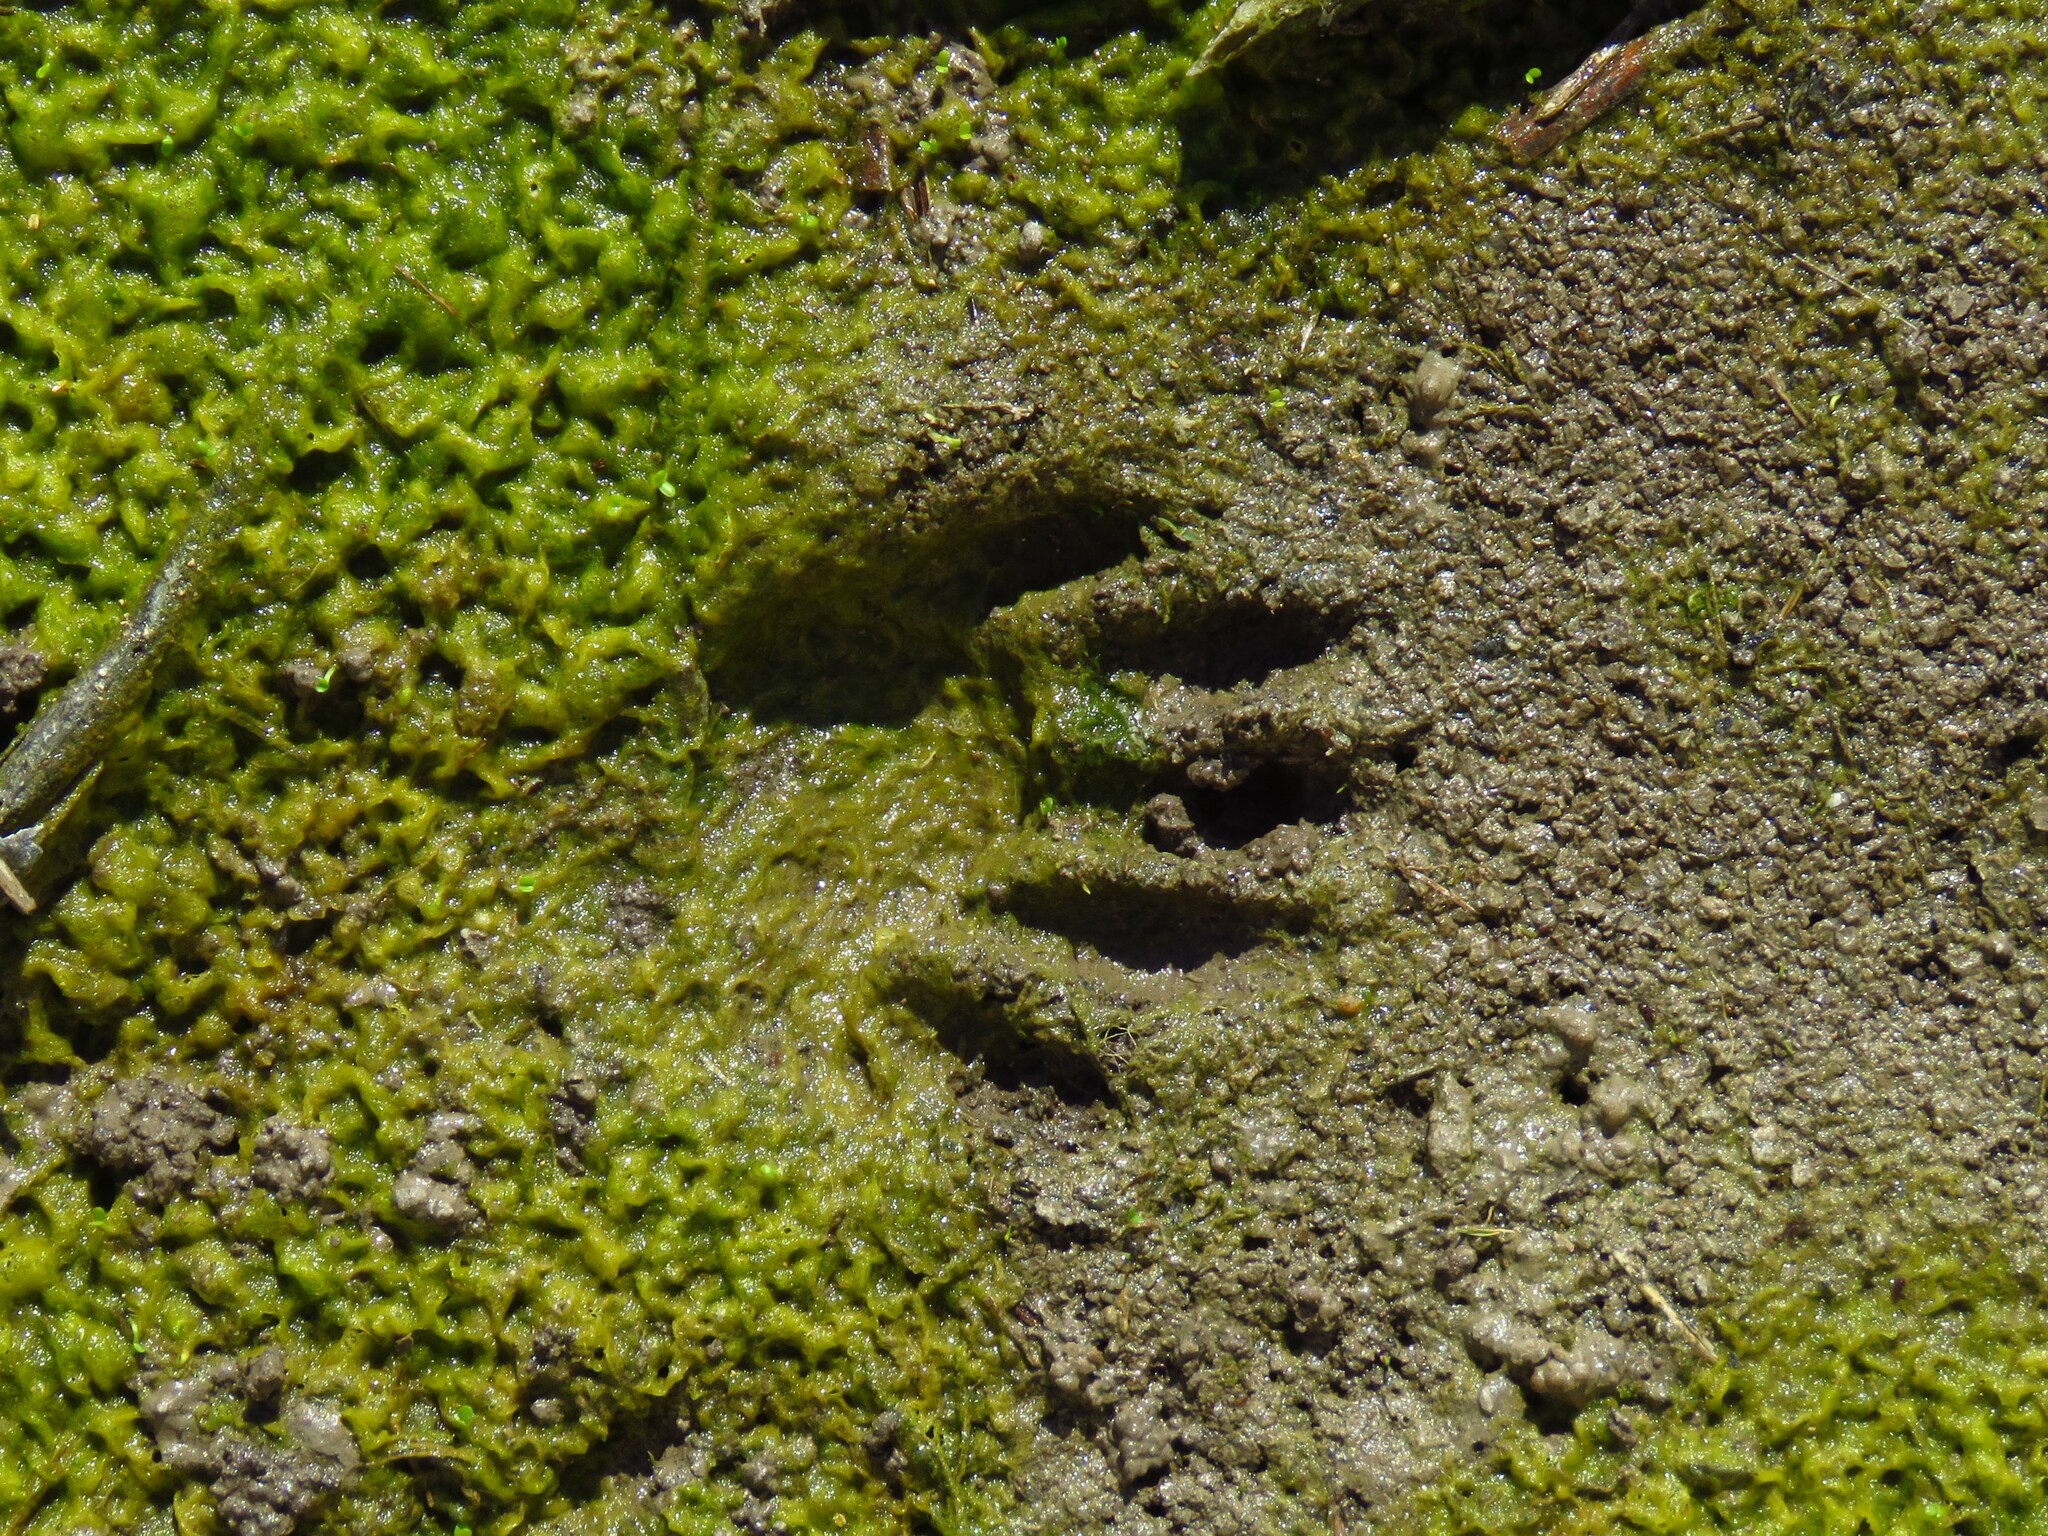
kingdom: Animalia
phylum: Chordata
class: Mammalia
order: Carnivora
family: Procyonidae
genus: Procyon
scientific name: Procyon lotor
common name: Raccoon
